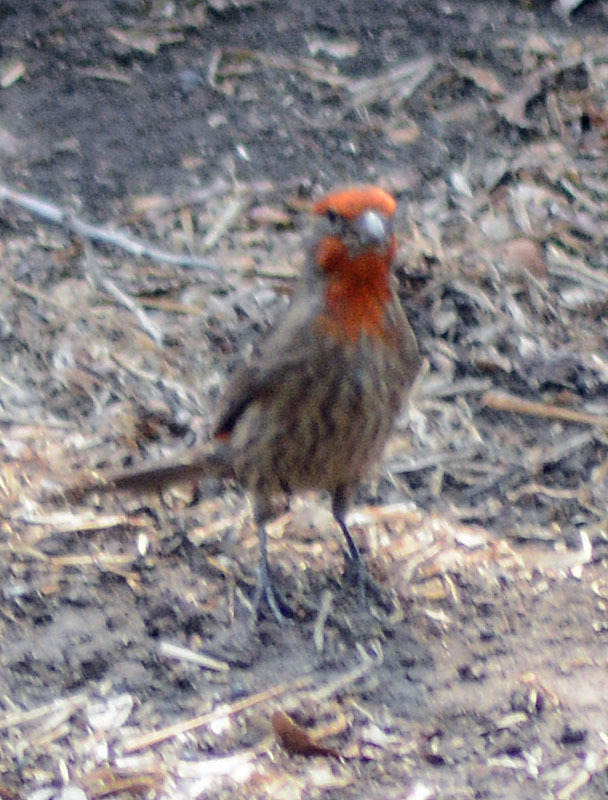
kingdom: Animalia
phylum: Chordata
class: Aves
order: Passeriformes
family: Fringillidae
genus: Haemorhous
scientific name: Haemorhous mexicanus
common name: House finch
